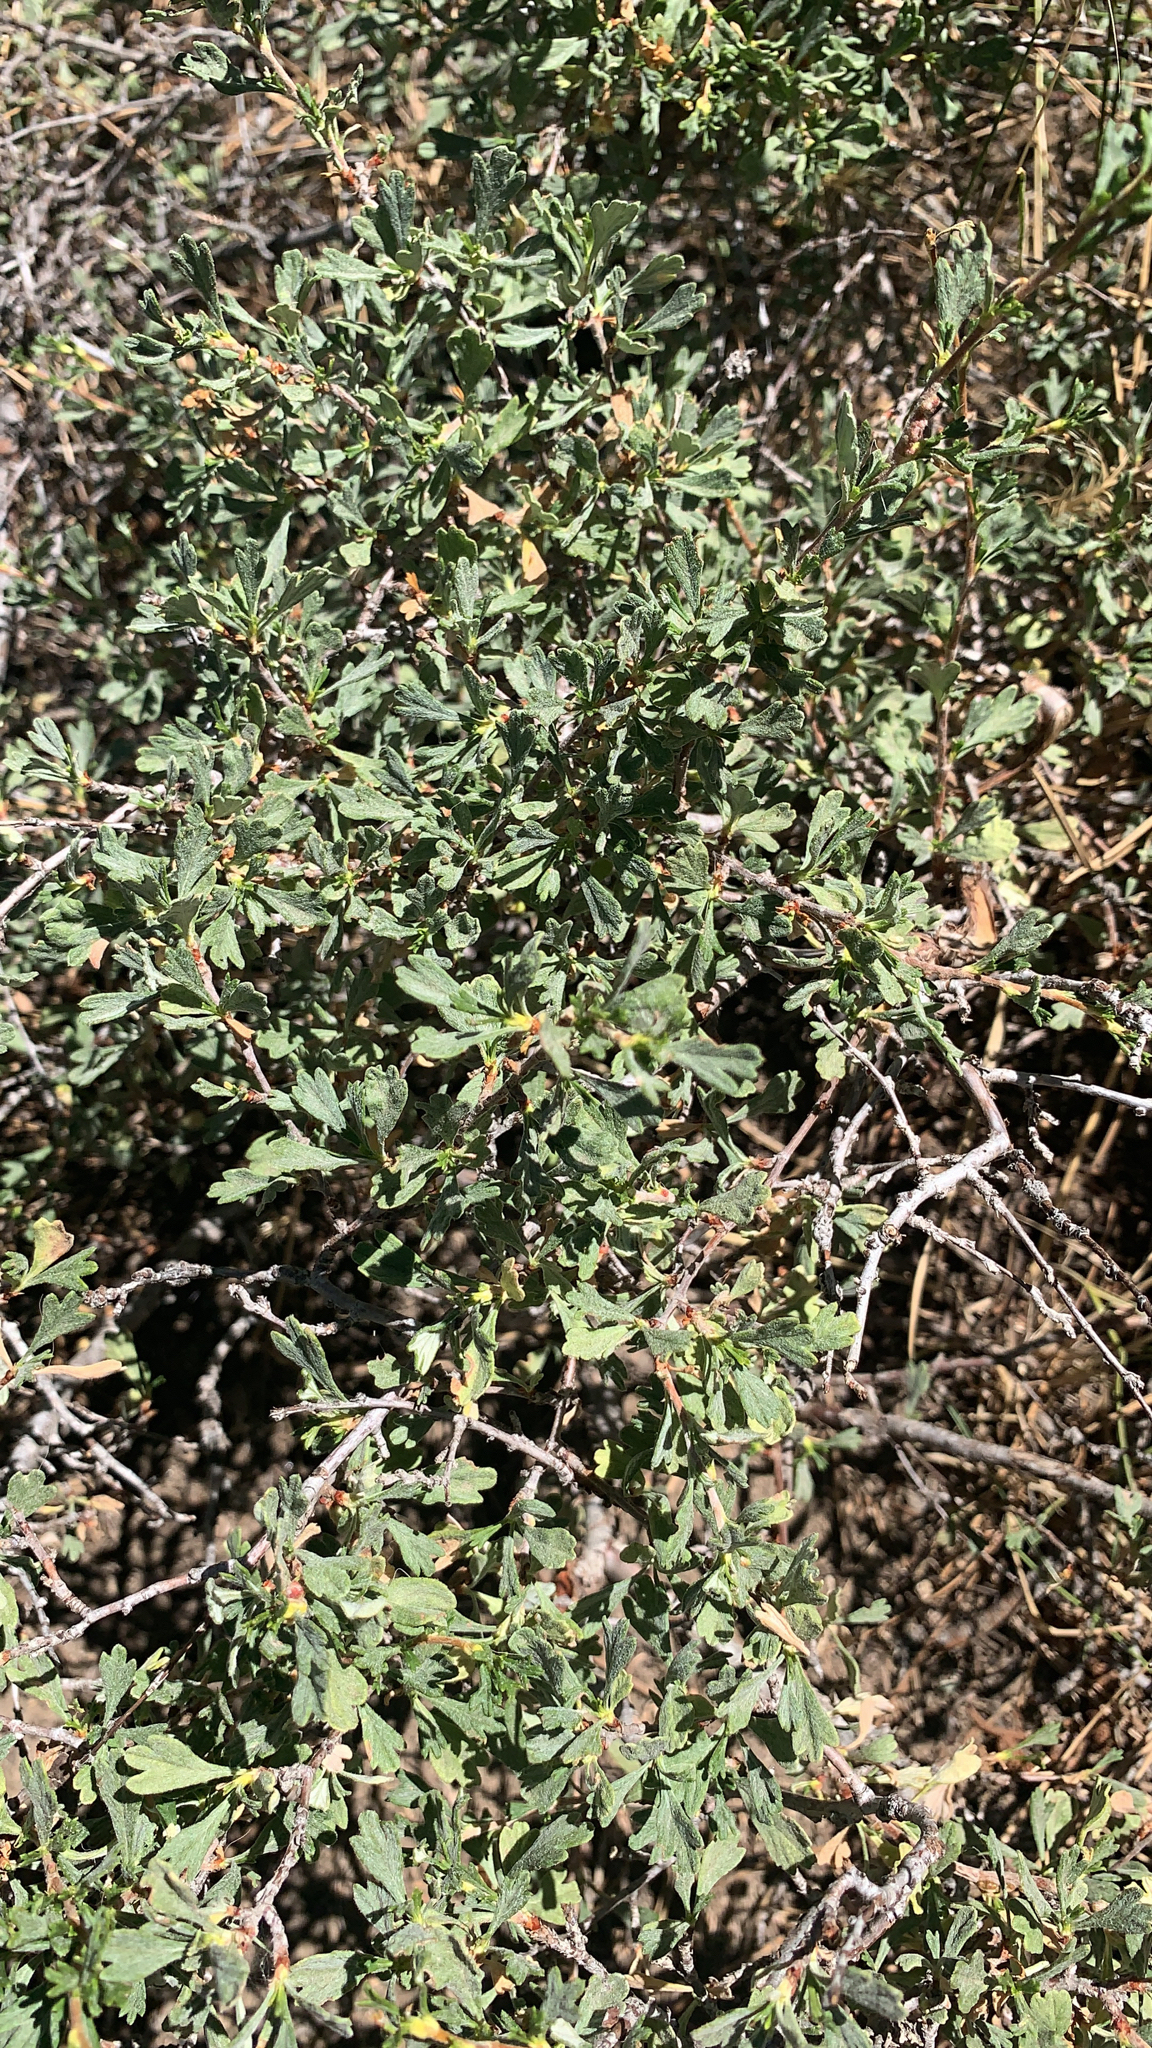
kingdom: Plantae
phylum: Tracheophyta
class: Magnoliopsida
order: Rosales
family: Rosaceae
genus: Purshia
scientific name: Purshia tridentata
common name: Antelope bitterbrush
